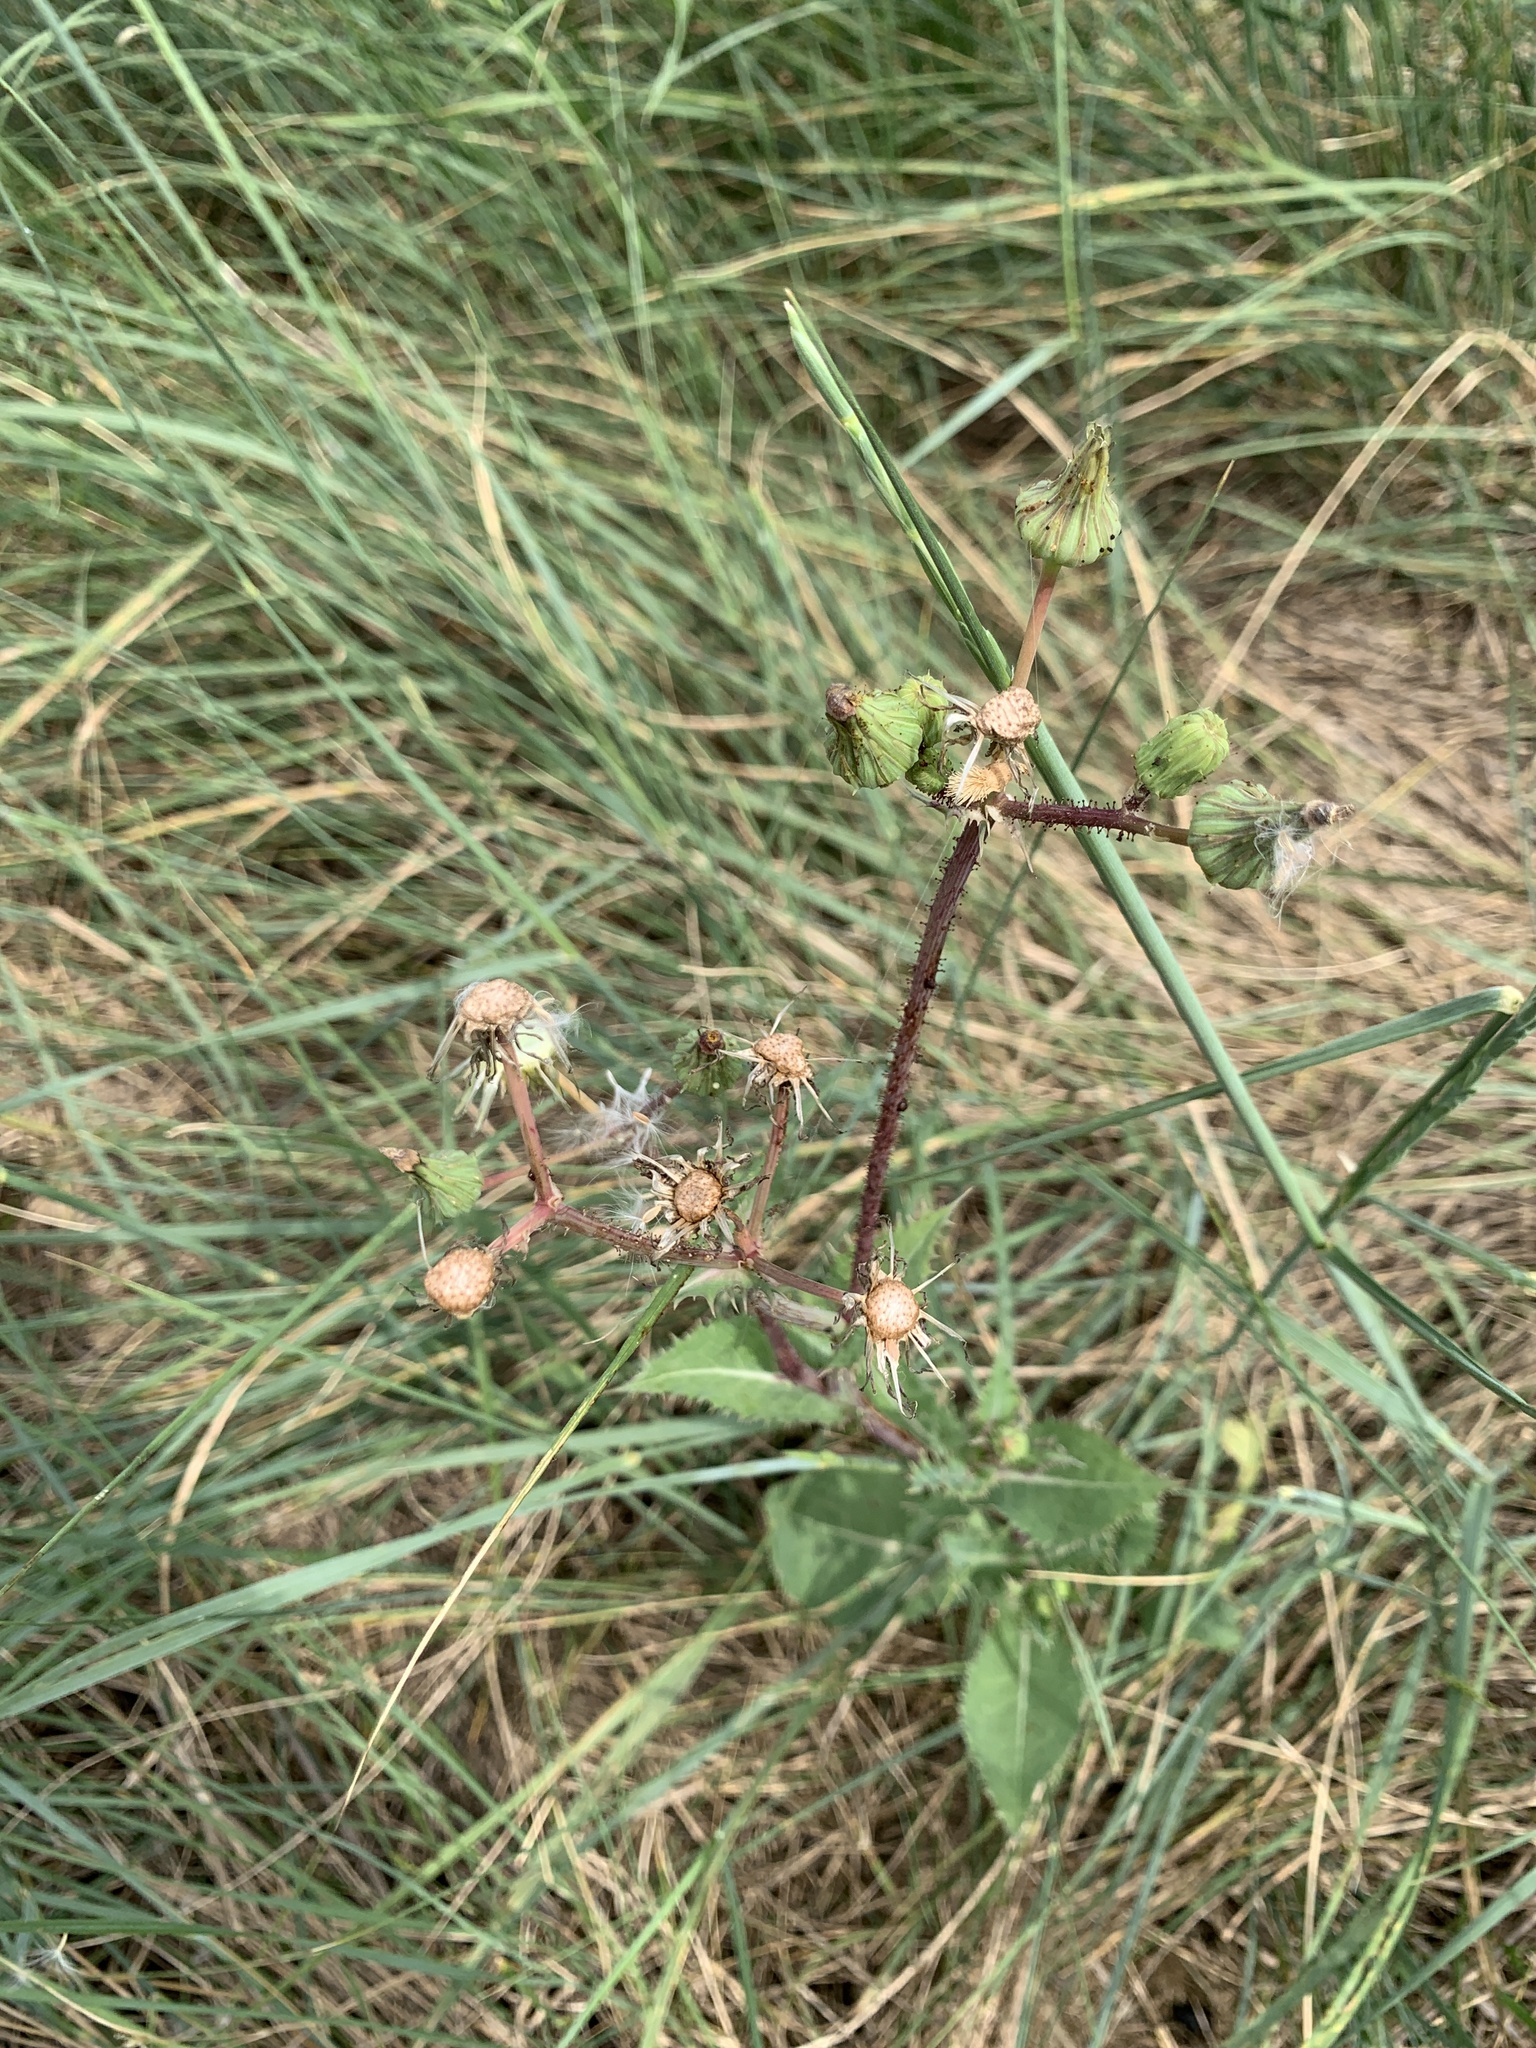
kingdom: Plantae
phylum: Tracheophyta
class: Magnoliopsida
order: Asterales
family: Asteraceae
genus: Sonchus
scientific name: Sonchus asper
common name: Prickly sow-thistle
